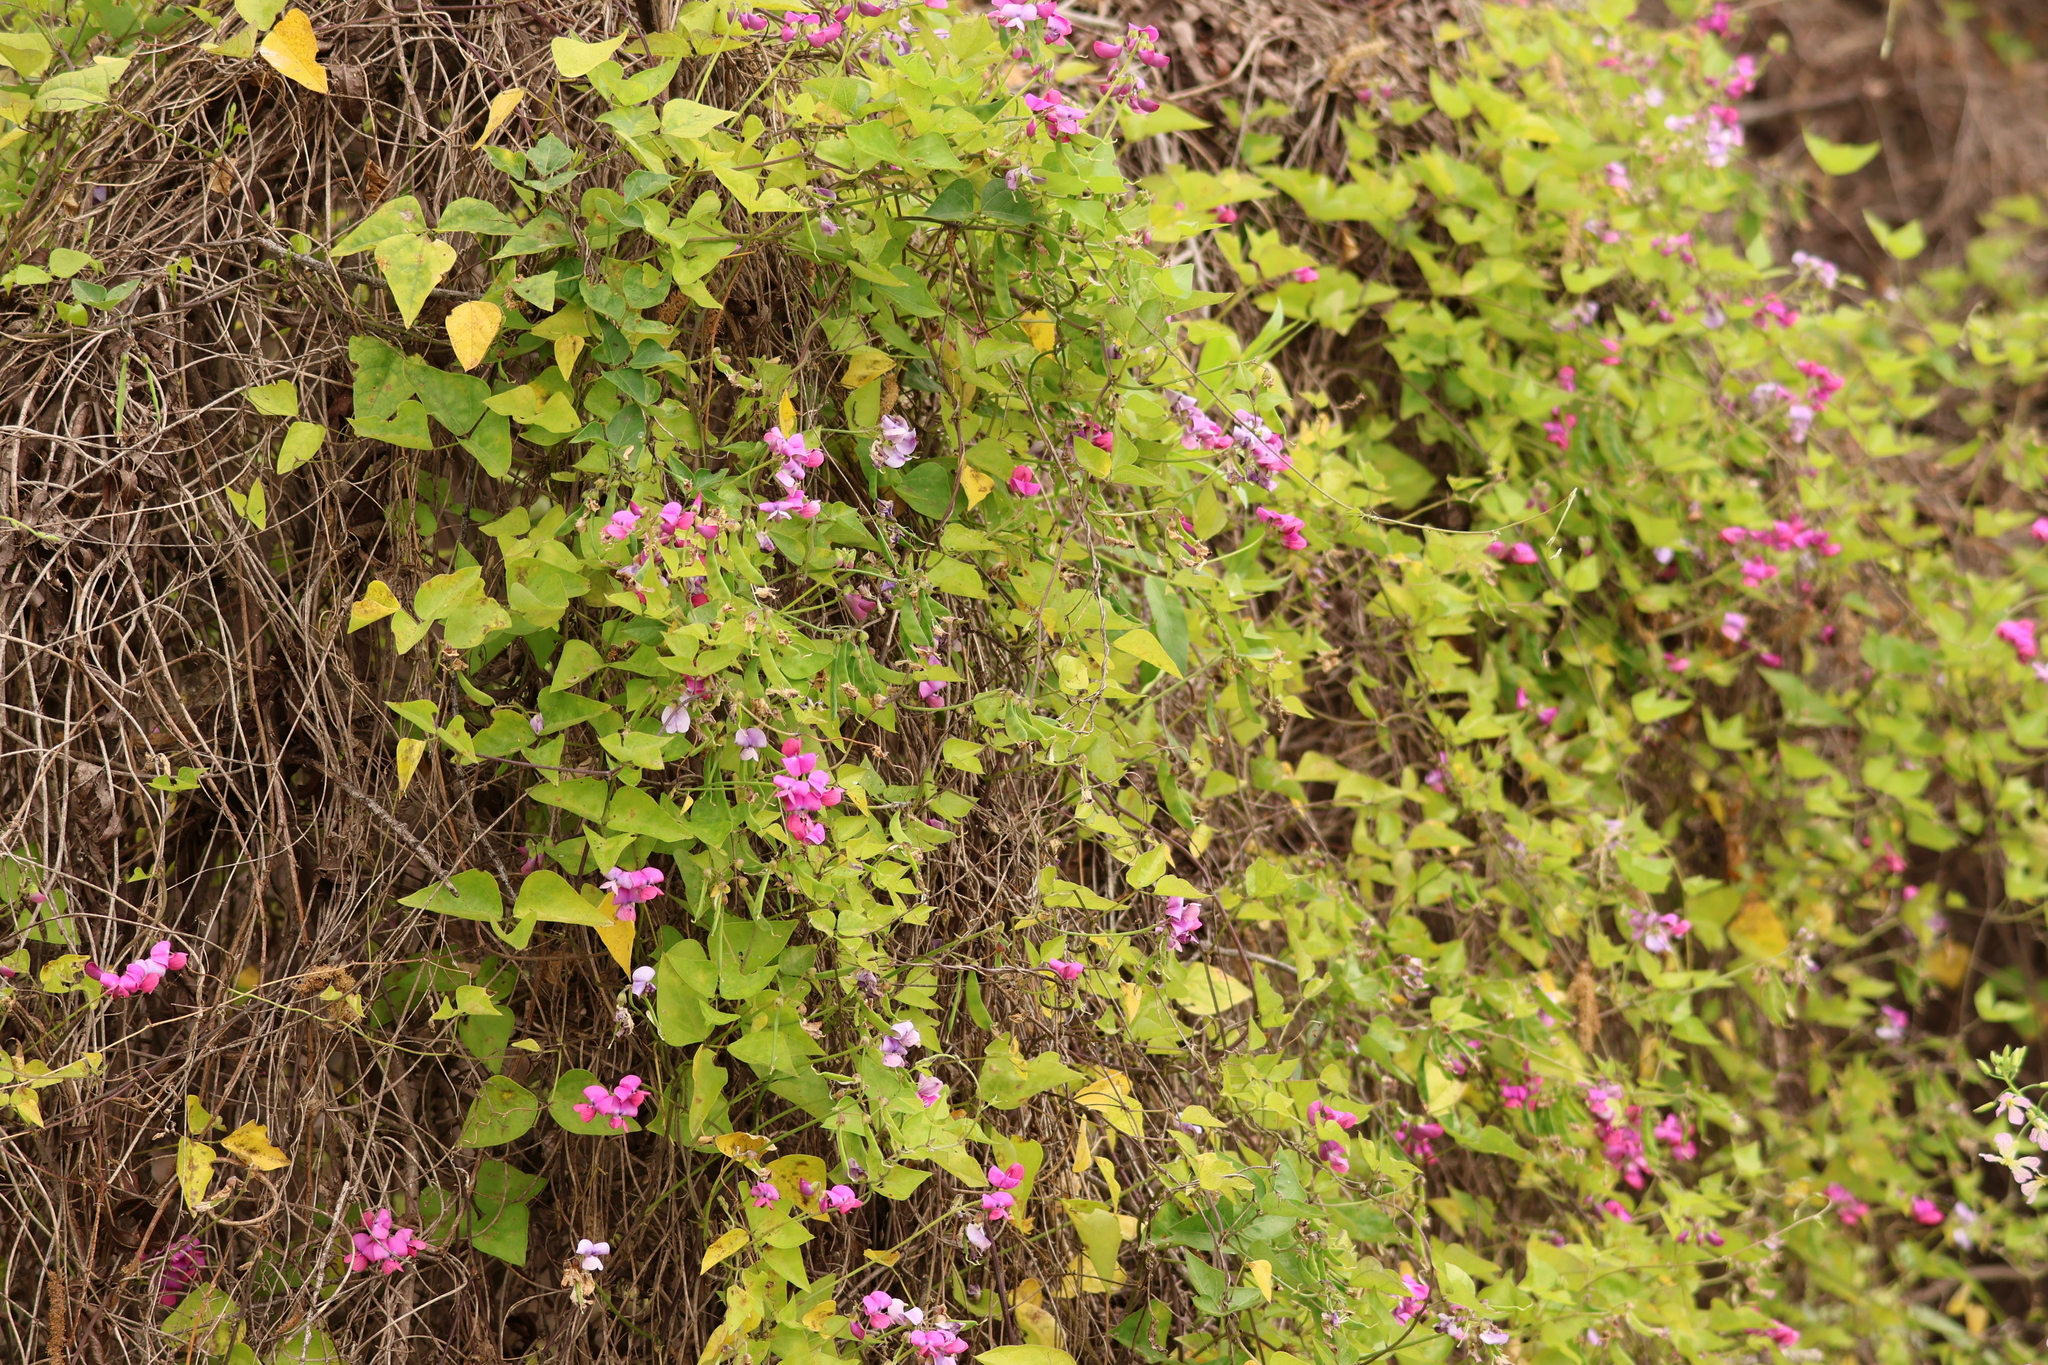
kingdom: Plantae
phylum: Tracheophyta
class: Magnoliopsida
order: Fabales
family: Fabaceae
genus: Dipogon
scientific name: Dipogon lignosus
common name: Okie bean
